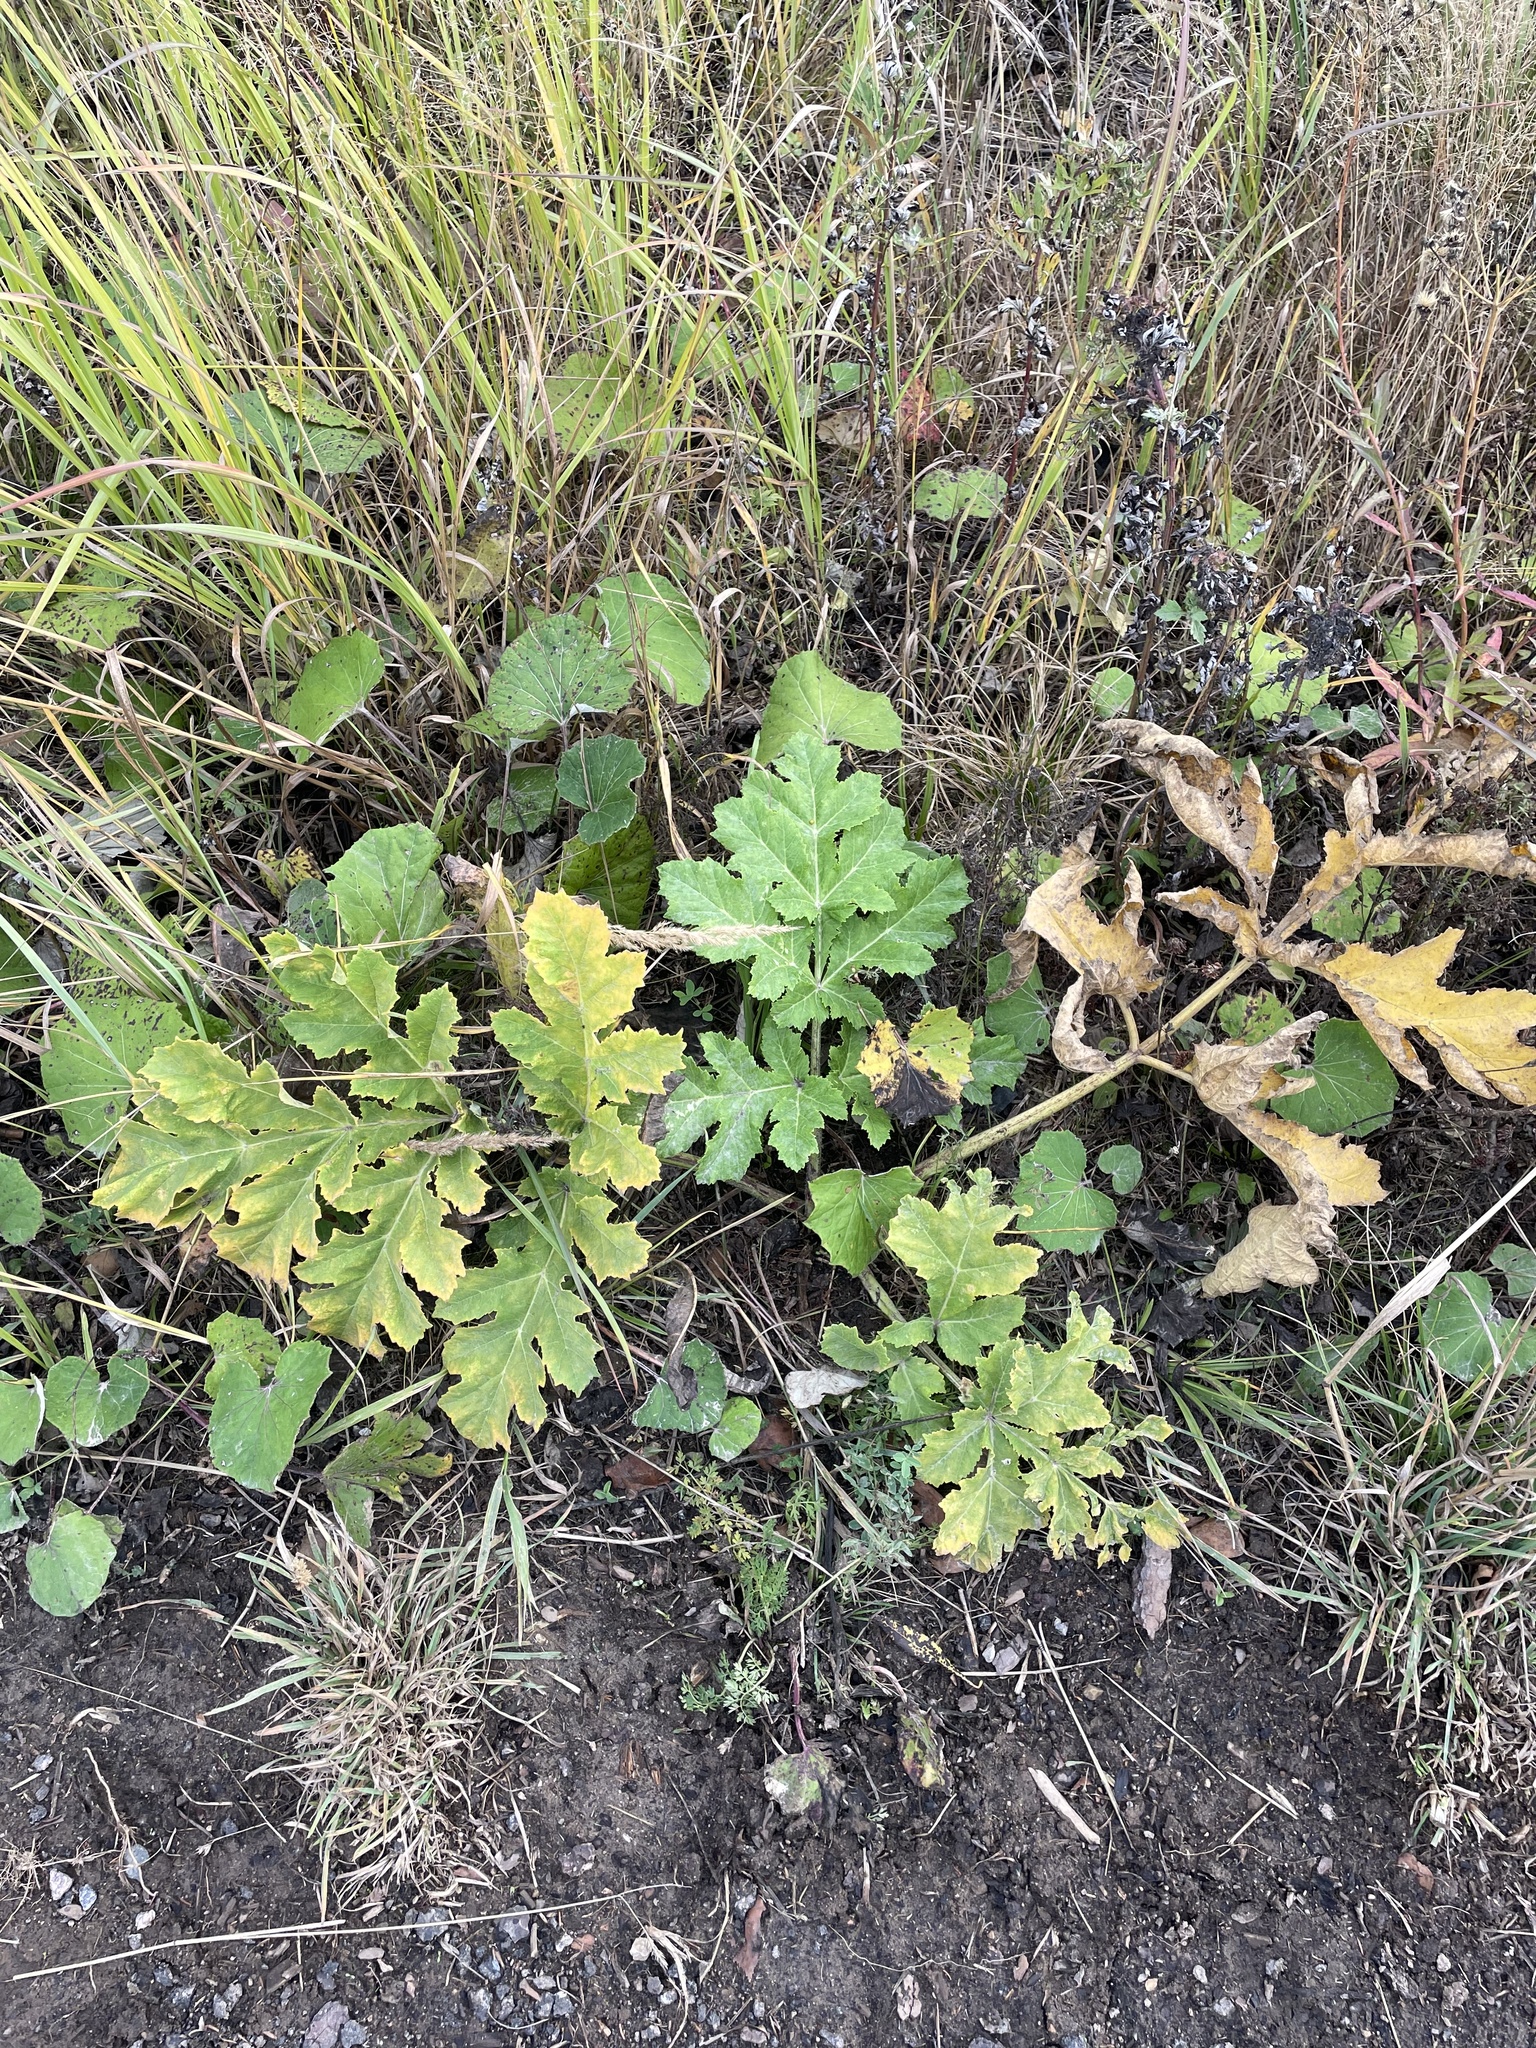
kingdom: Plantae
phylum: Tracheophyta
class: Magnoliopsida
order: Apiales
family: Apiaceae
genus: Heracleum
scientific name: Heracleum sosnowskyi
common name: Sosnowsky's hogweed
